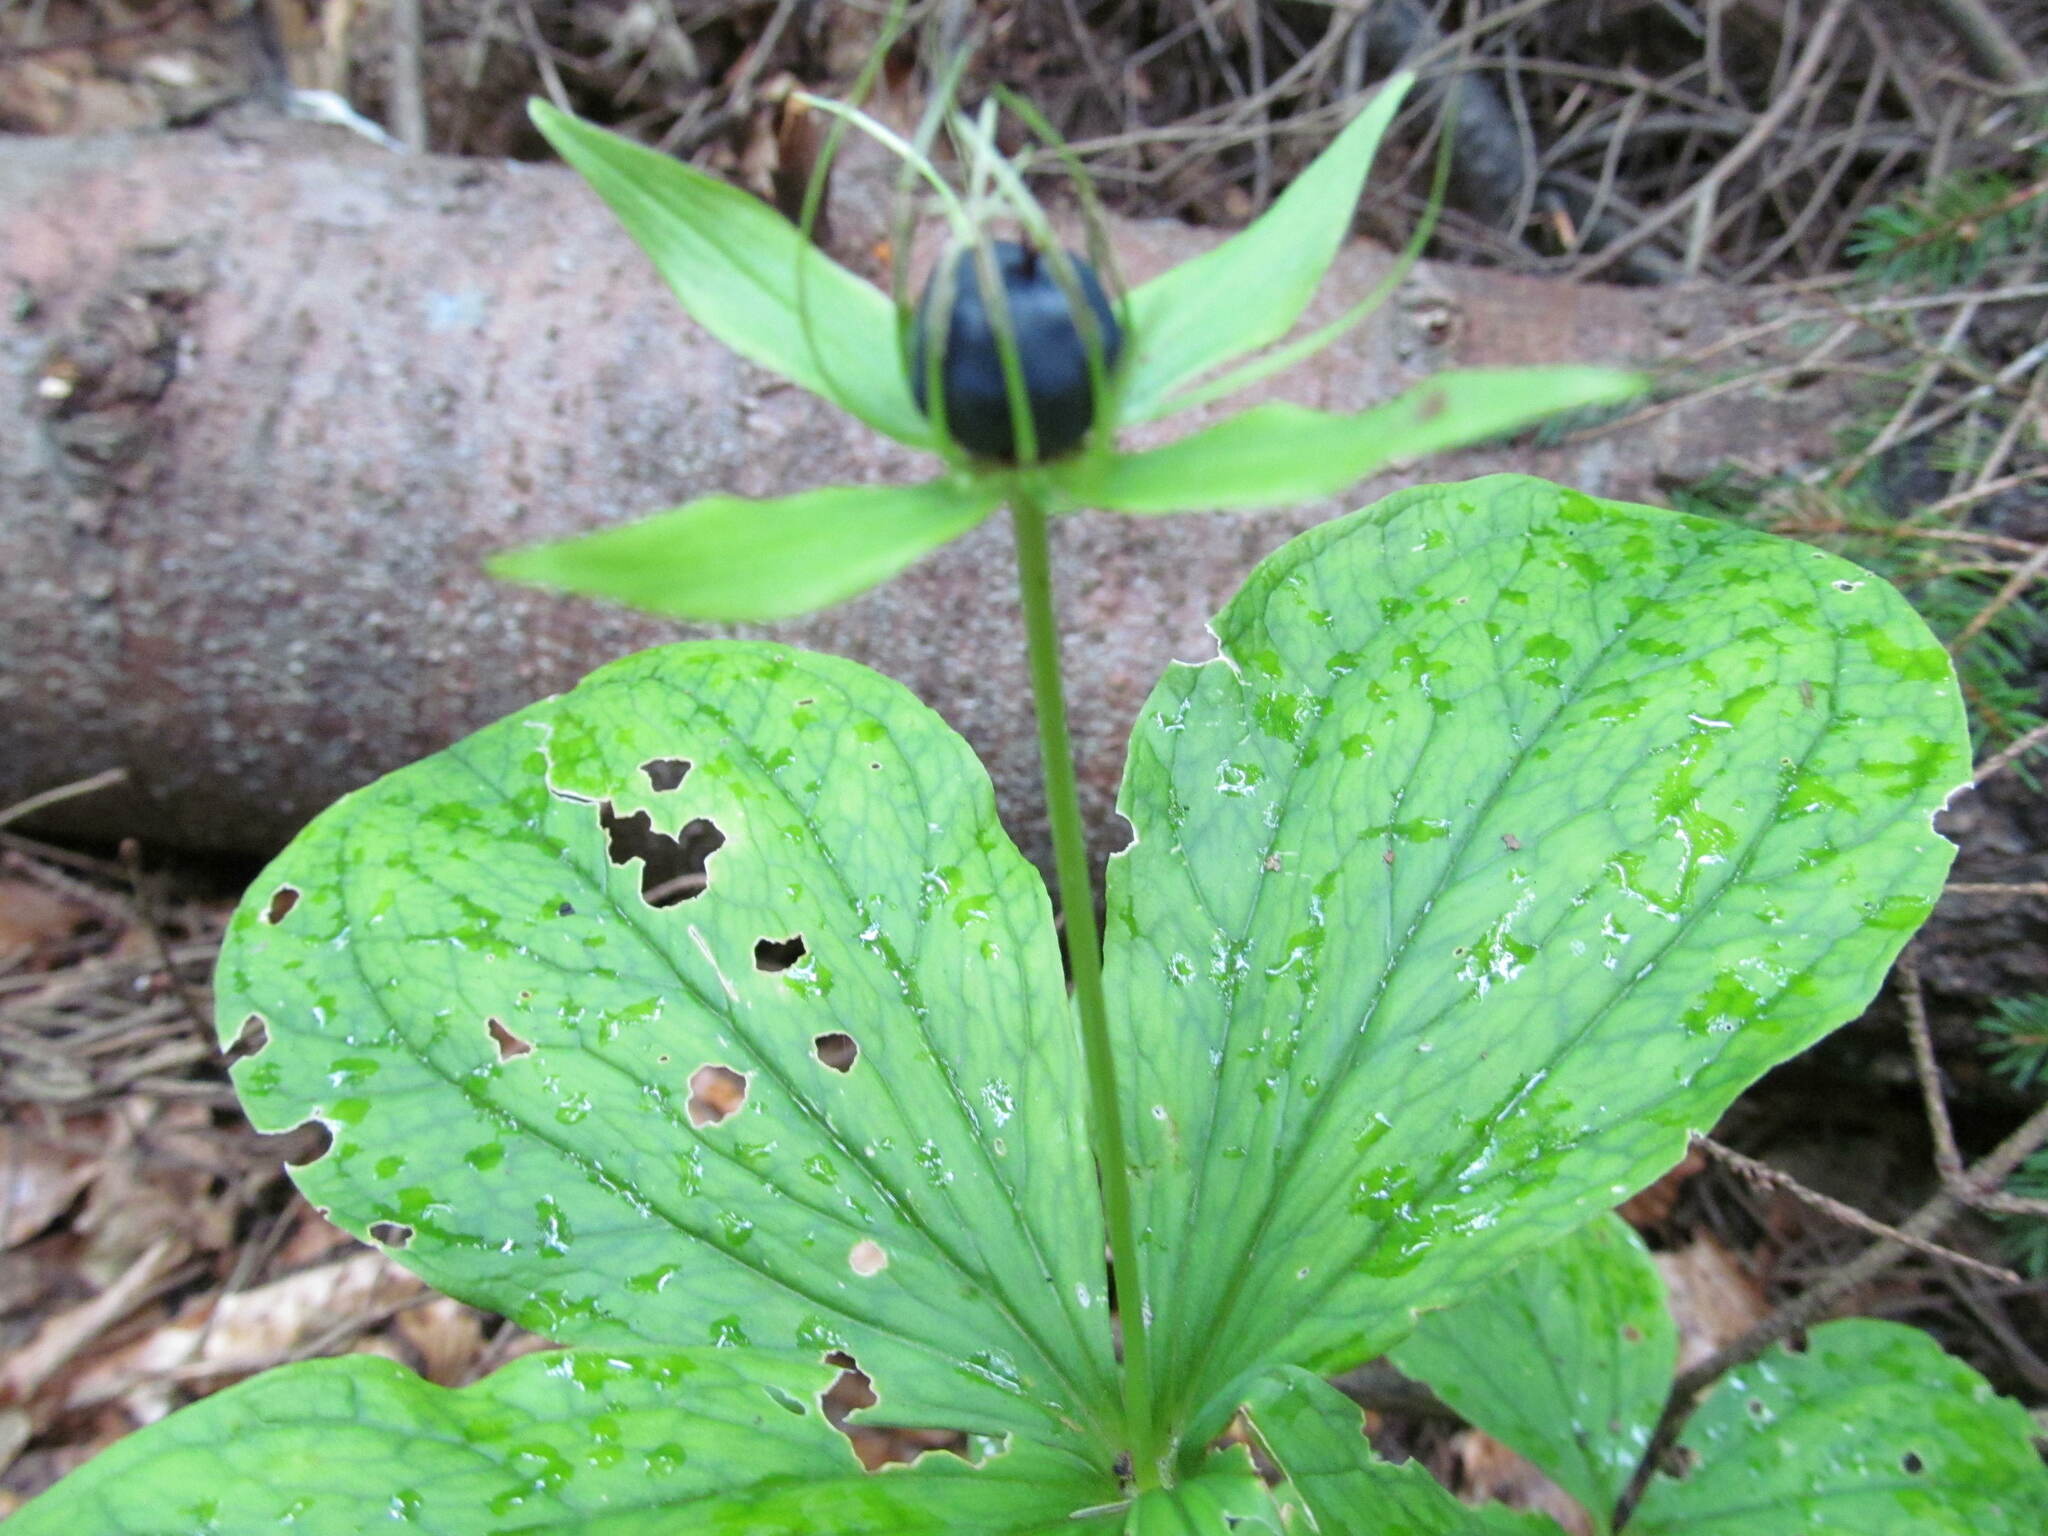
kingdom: Plantae
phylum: Tracheophyta
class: Liliopsida
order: Liliales
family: Melanthiaceae
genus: Paris
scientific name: Paris quadrifolia
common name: Herb-paris
